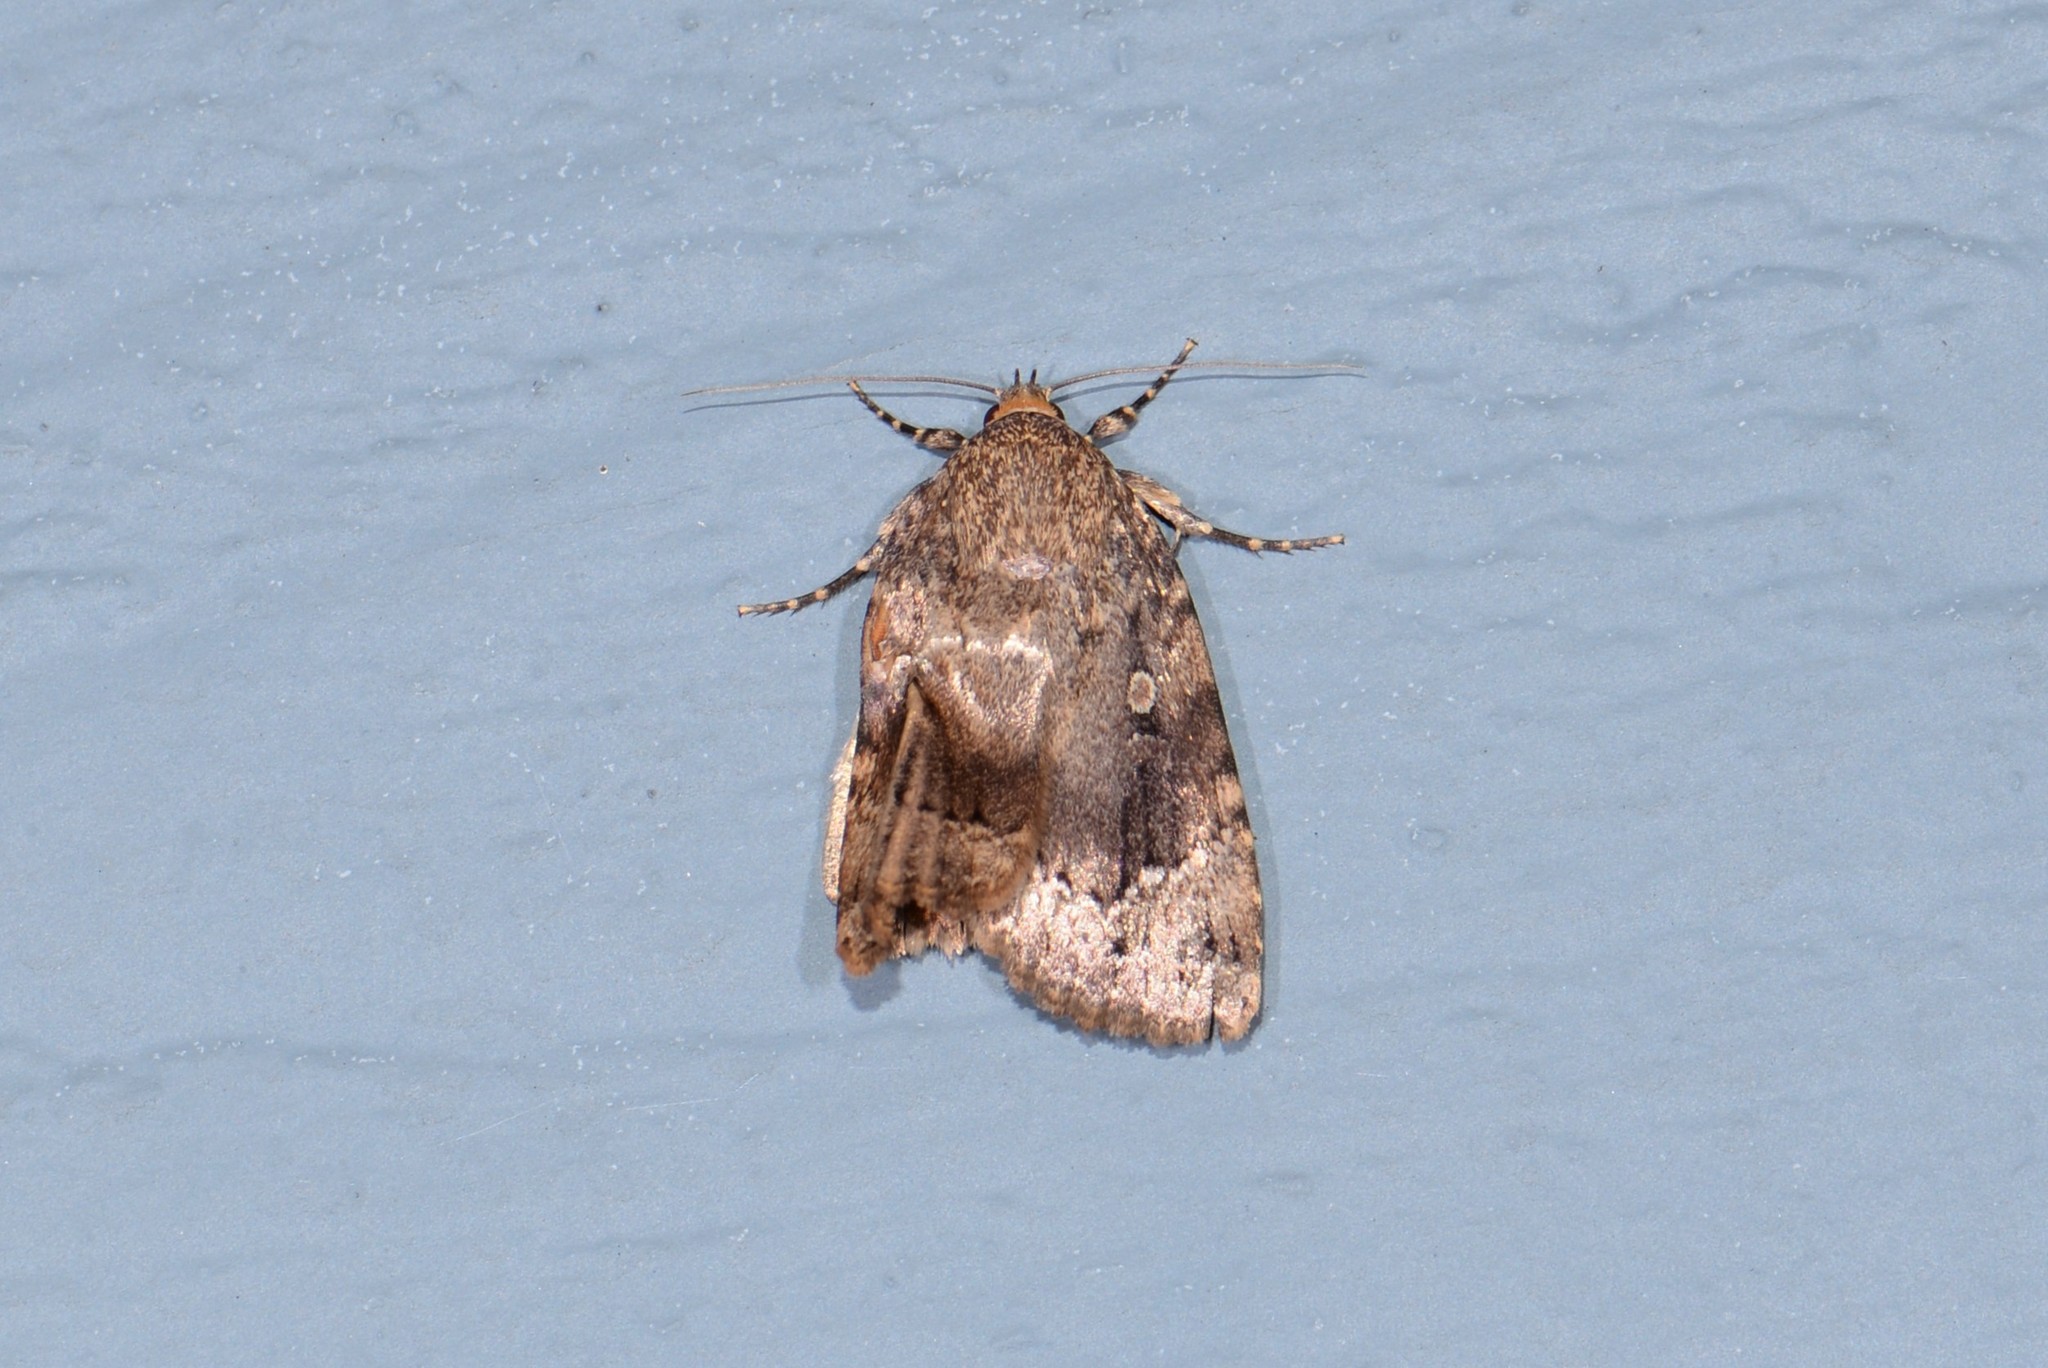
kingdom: Animalia
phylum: Arthropoda
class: Insecta
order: Lepidoptera
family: Noctuidae
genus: Amphipyra
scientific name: Amphipyra pyramidoides
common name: American copper underwing
